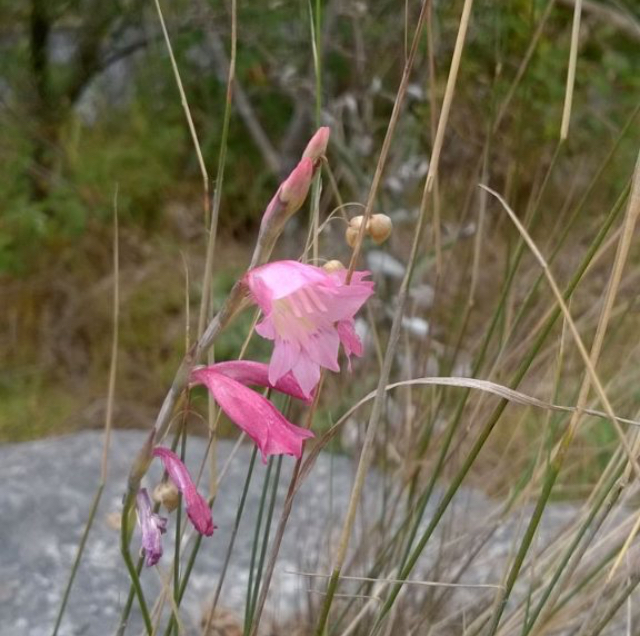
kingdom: Plantae
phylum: Tracheophyta
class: Liliopsida
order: Asparagales
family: Iridaceae
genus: Gladiolus
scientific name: Gladiolus brevifolius
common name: March pypie
